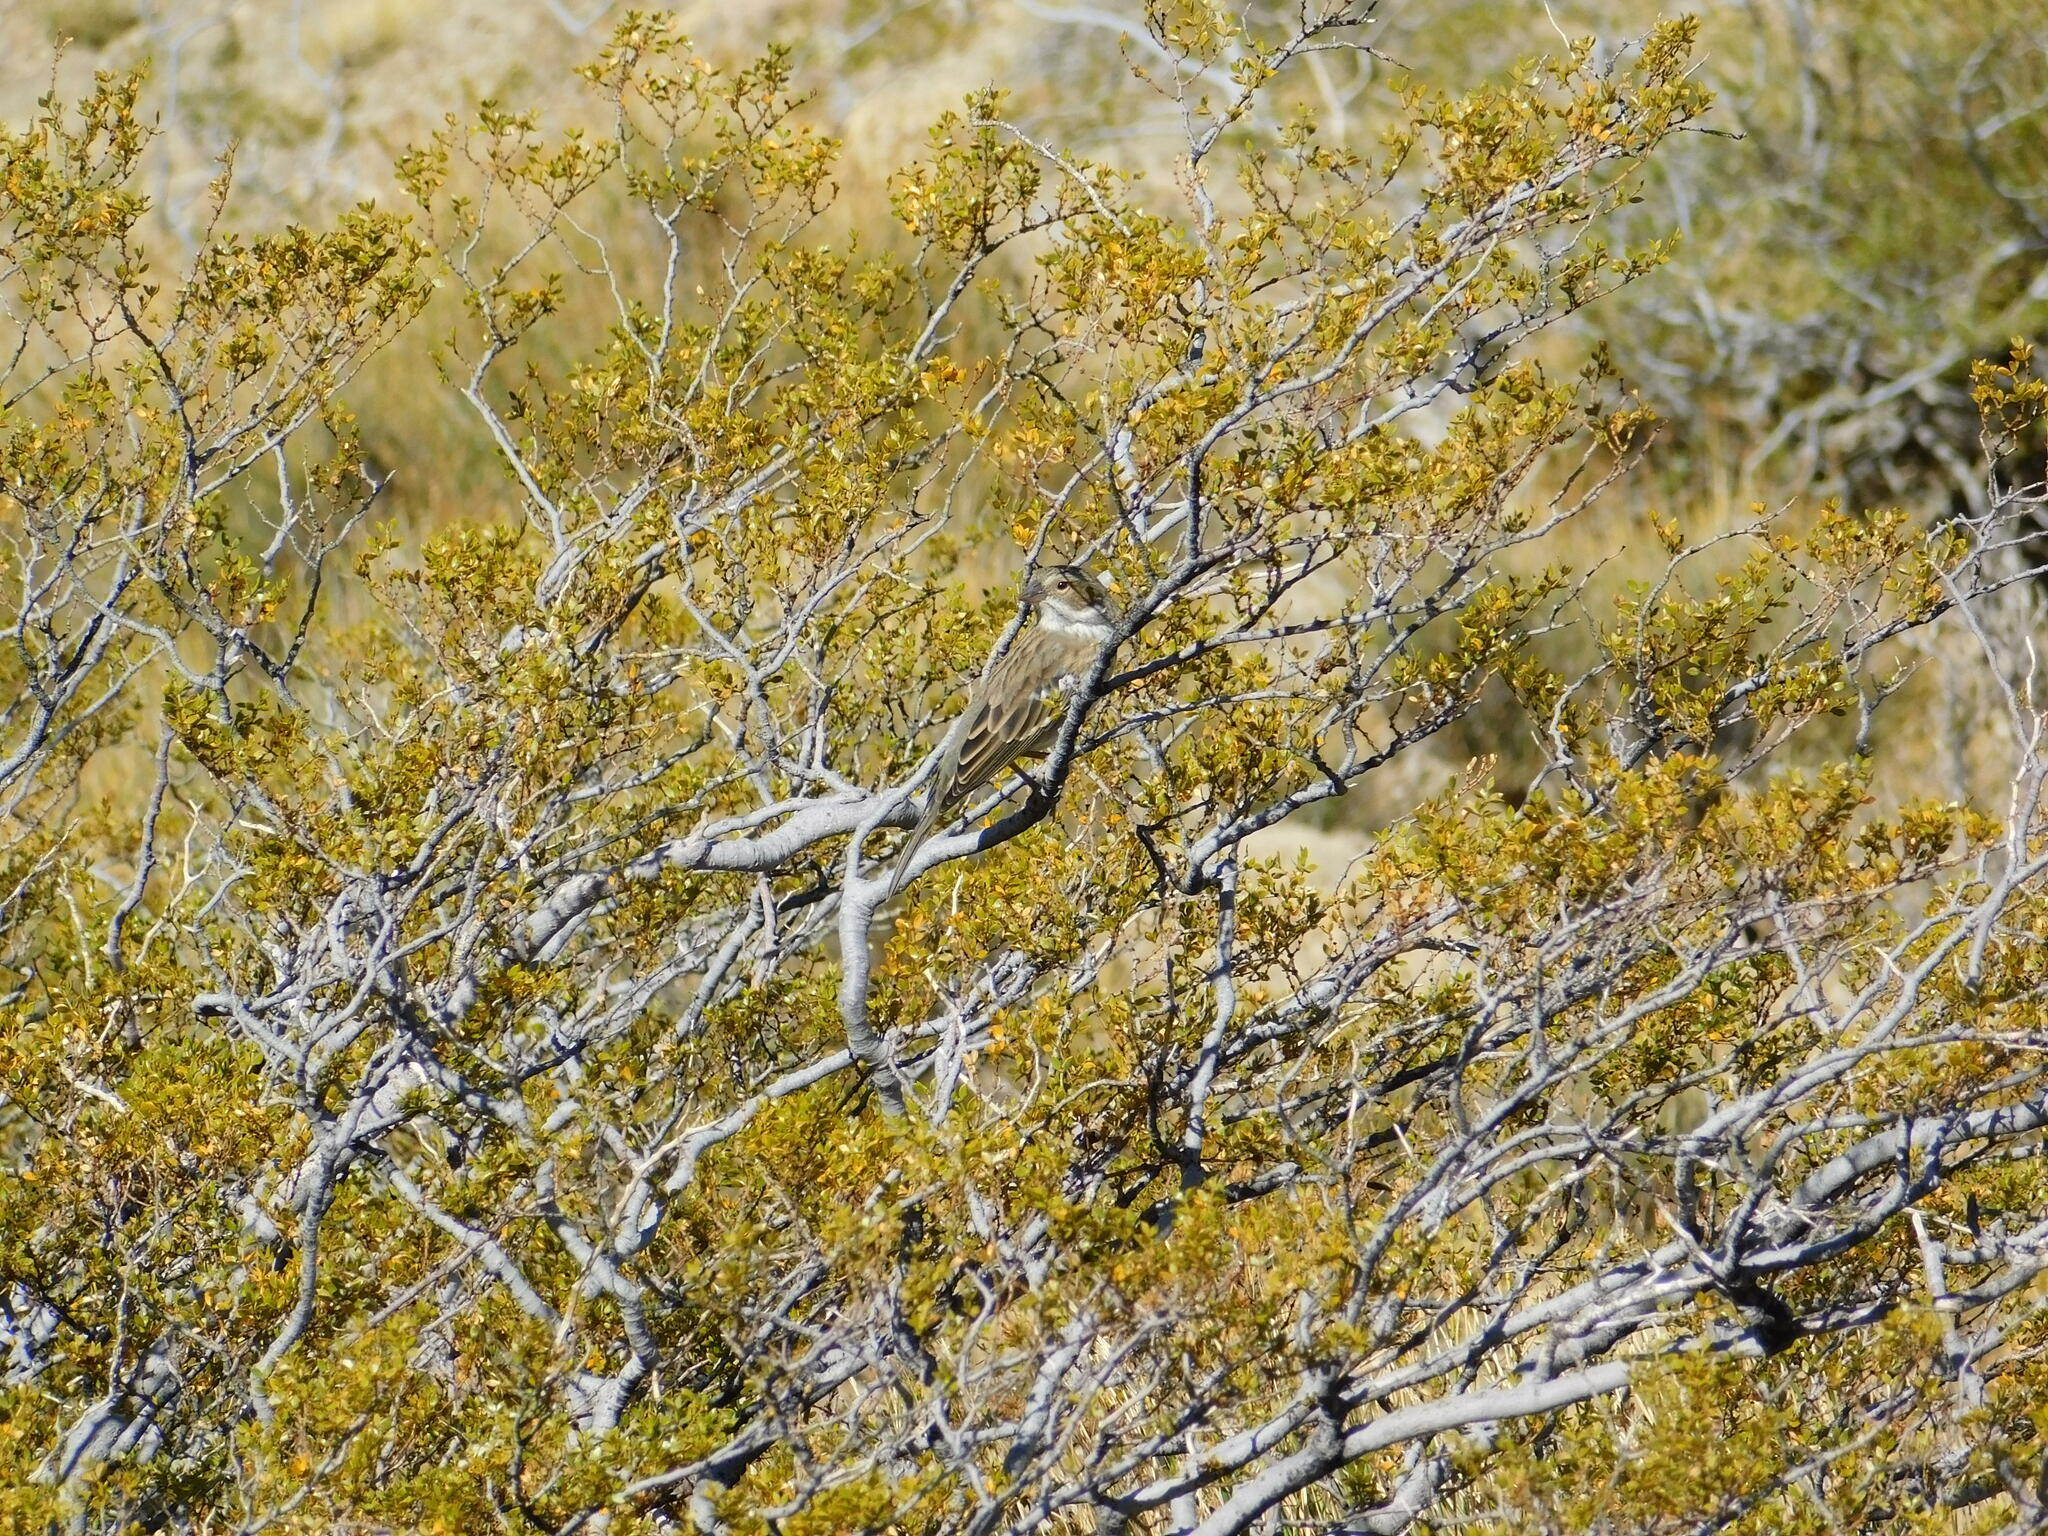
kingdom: Animalia
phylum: Chordata
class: Aves
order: Passeriformes
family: Thraupidae
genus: Rhopospina
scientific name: Rhopospina fruticeti
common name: Mourning sierra finch
